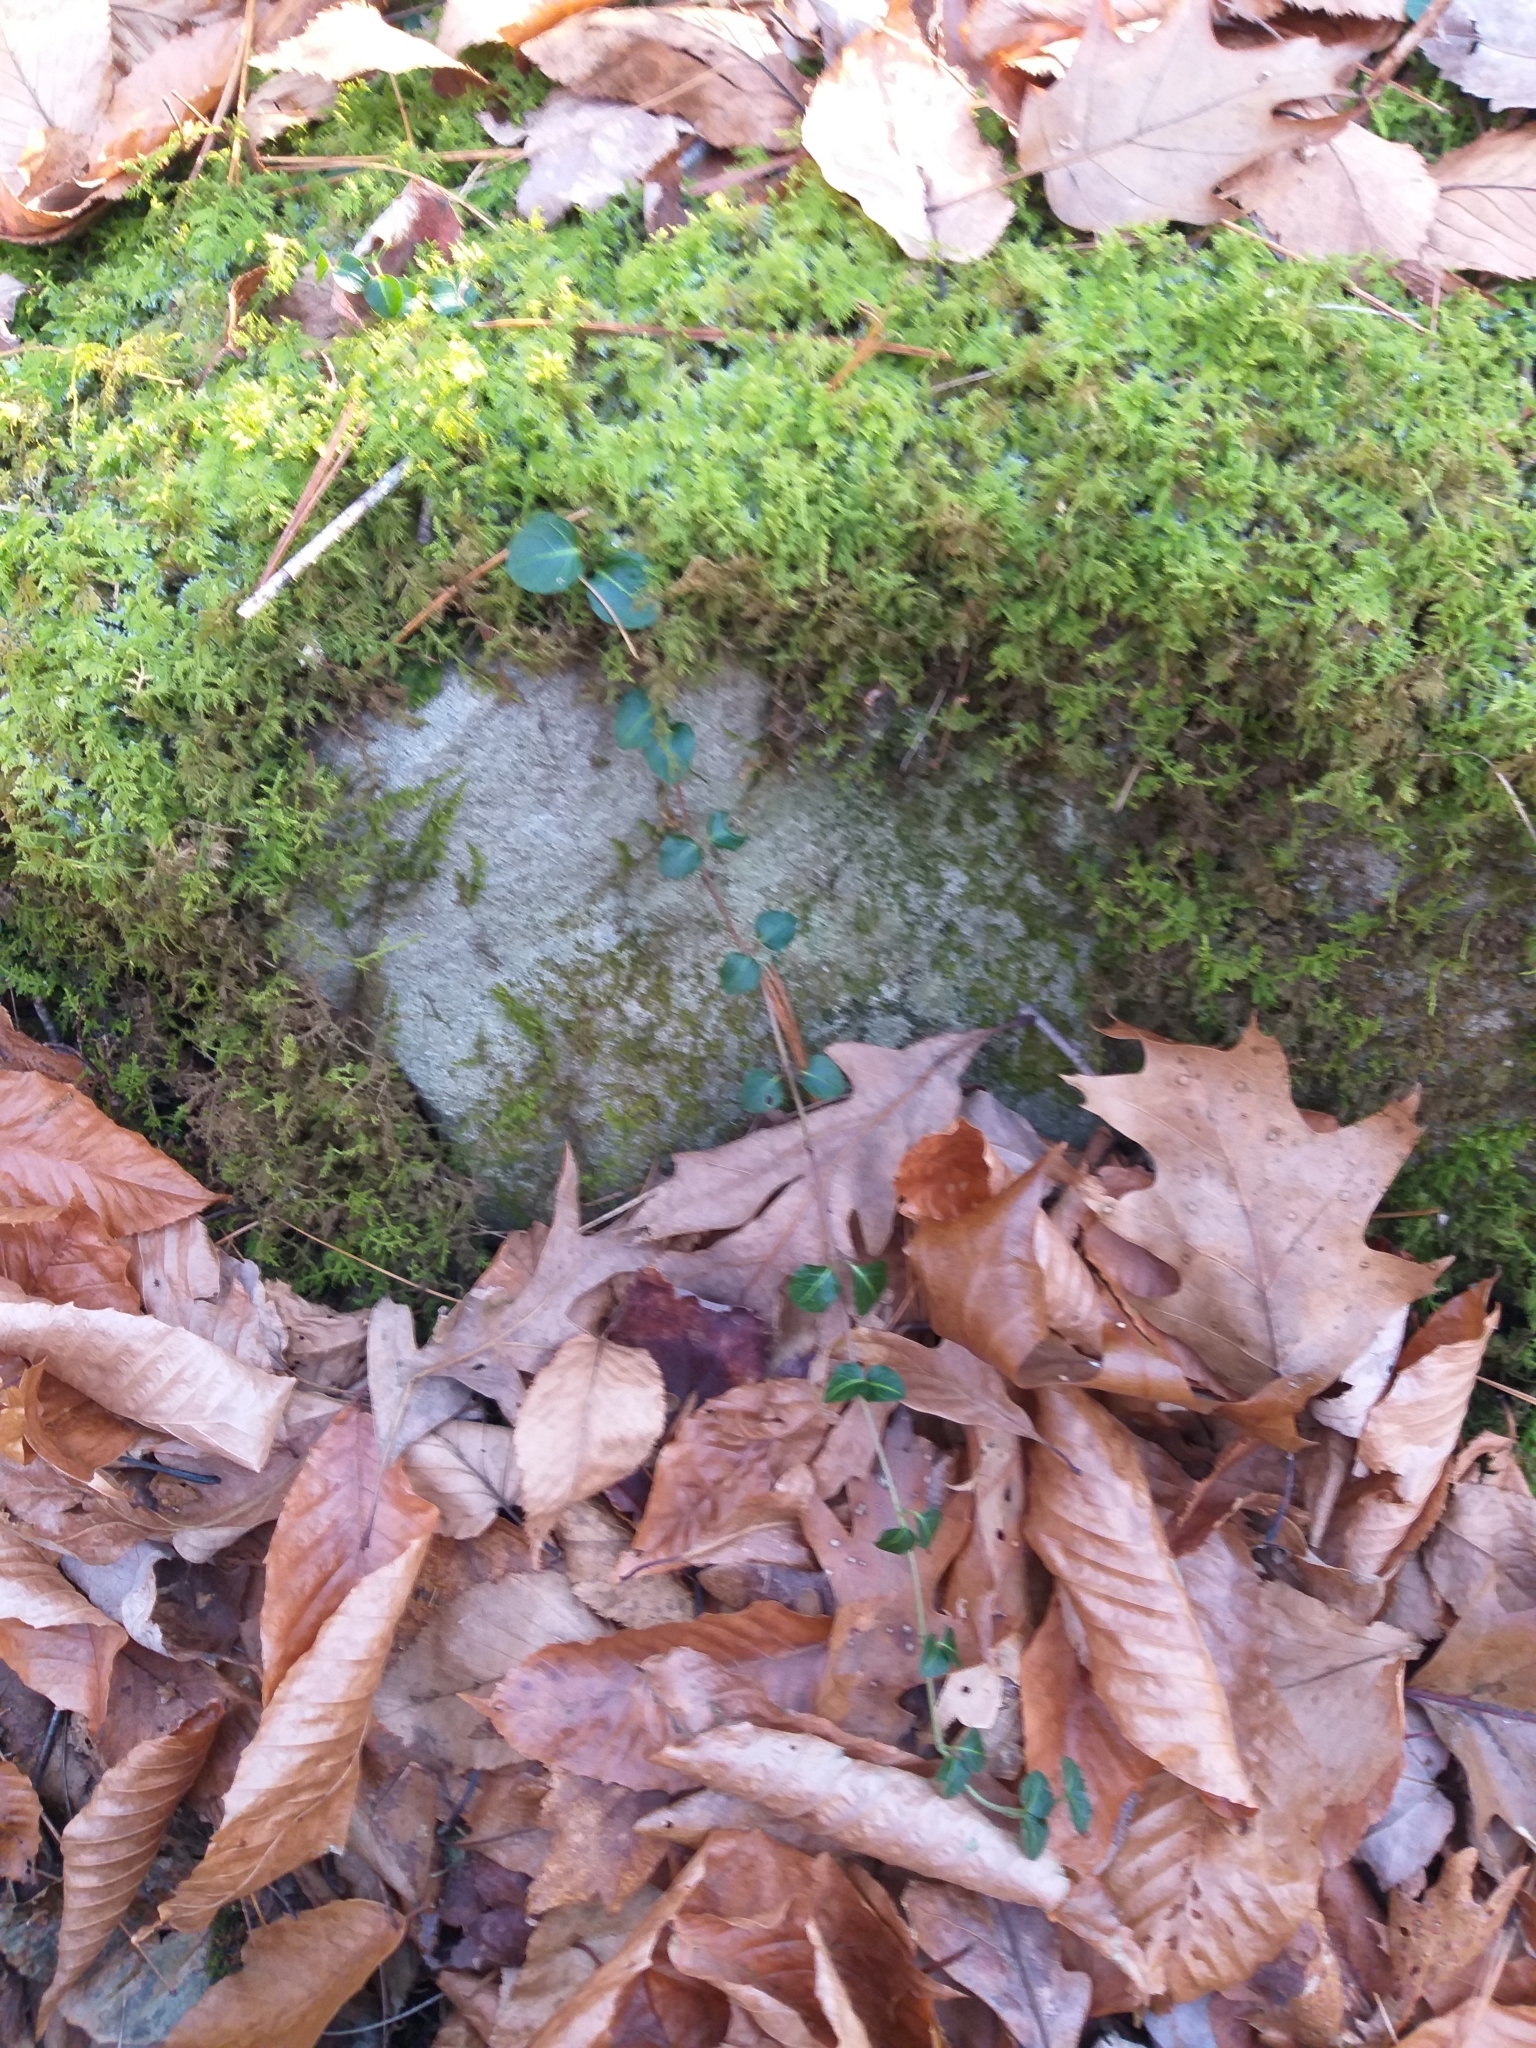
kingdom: Plantae
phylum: Tracheophyta
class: Magnoliopsida
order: Gentianales
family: Rubiaceae
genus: Mitchella
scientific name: Mitchella repens
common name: Partridge-berry
